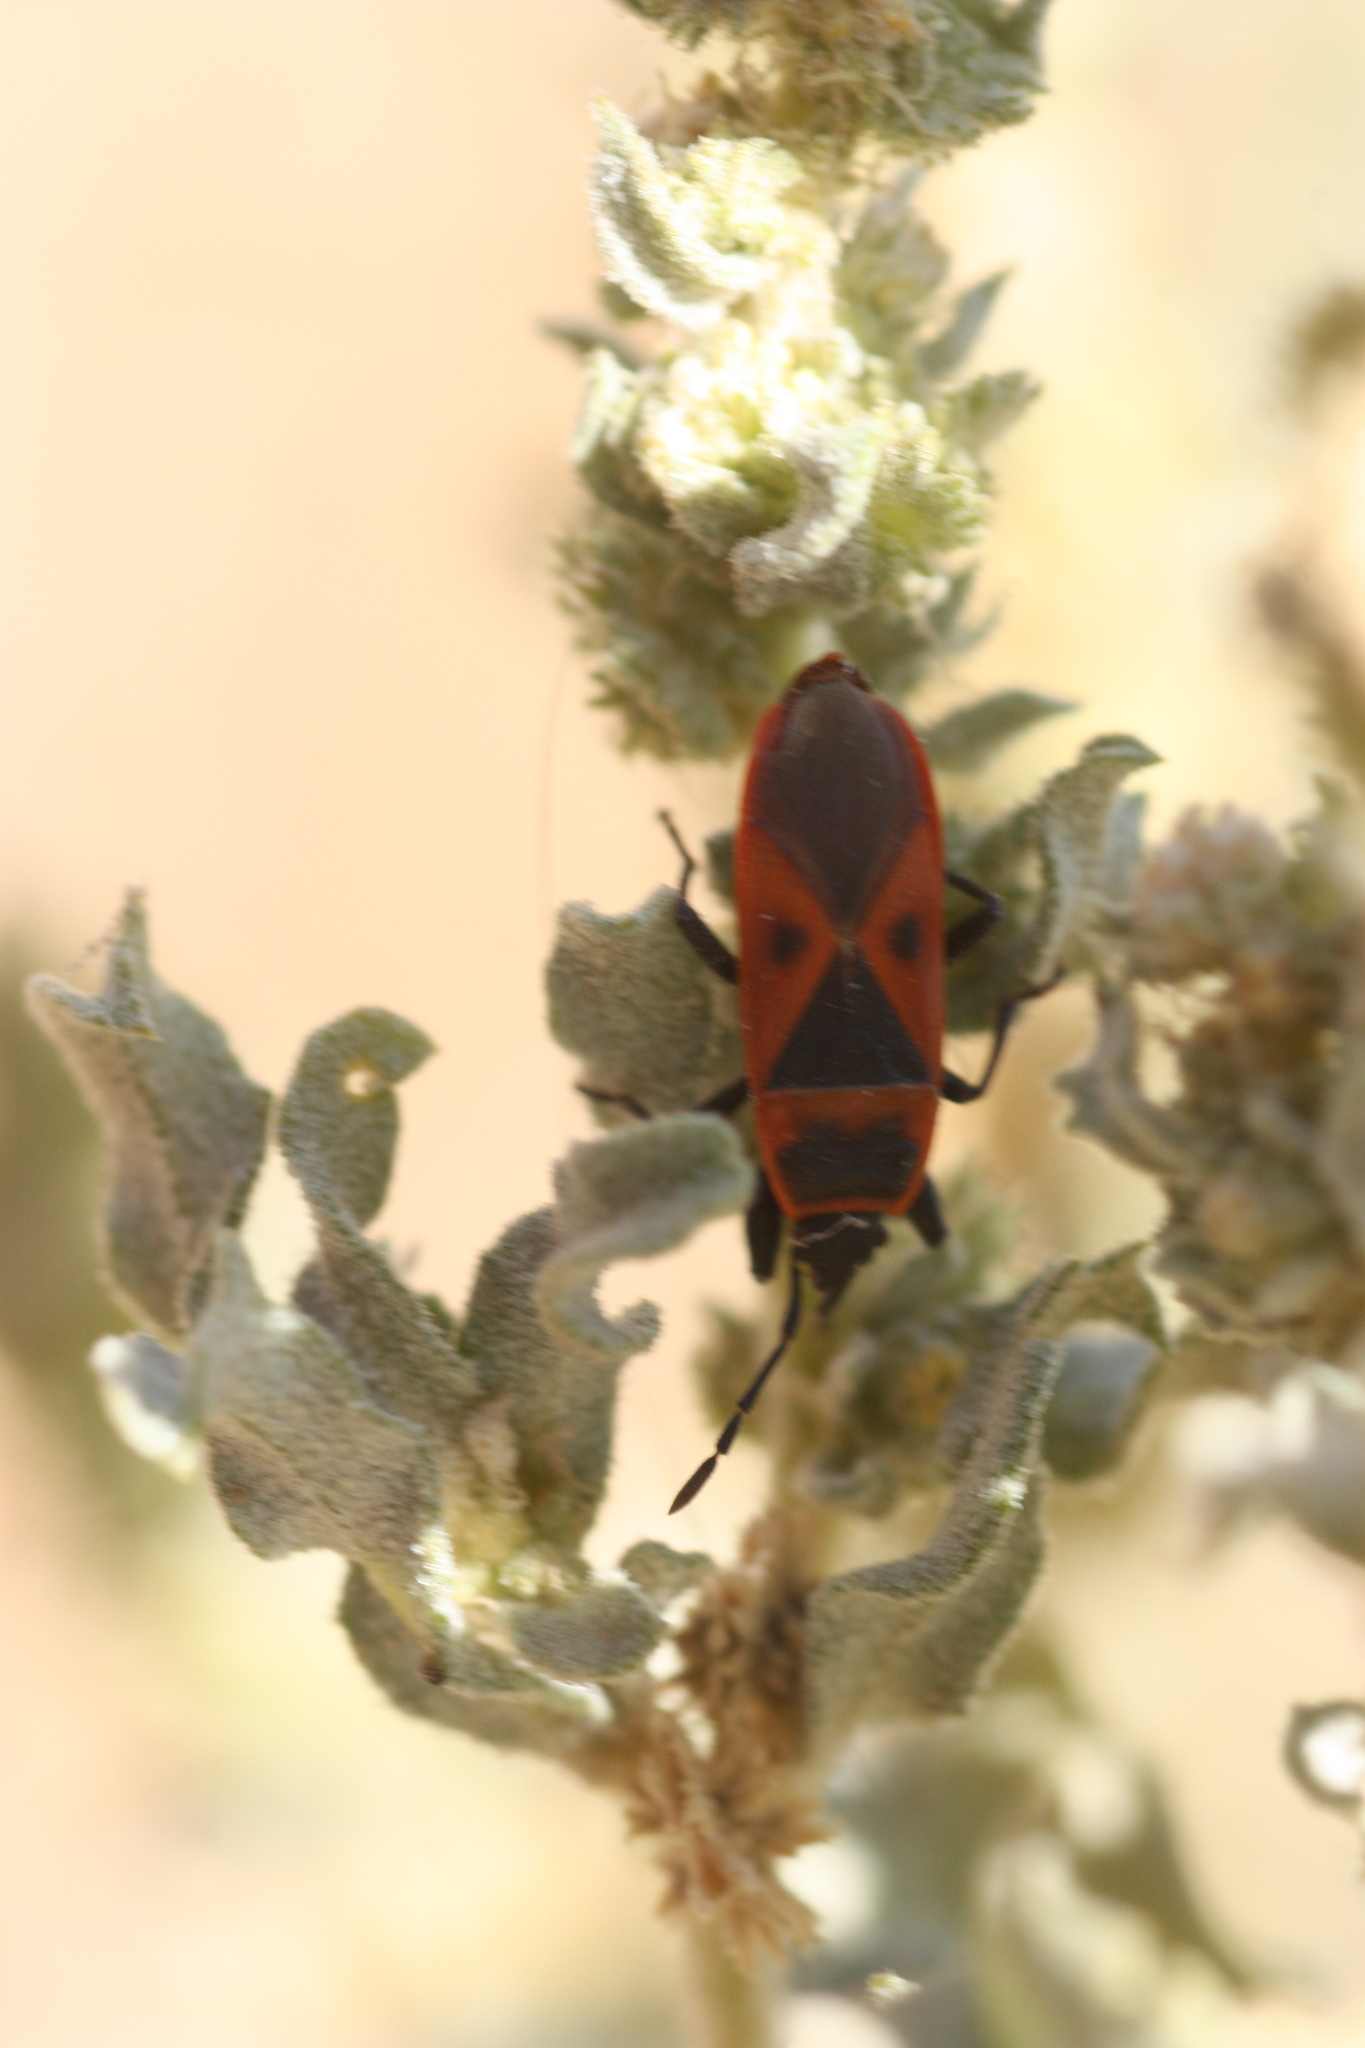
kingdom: Animalia
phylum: Arthropoda
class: Insecta
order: Hemiptera
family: Pyrrhocoridae
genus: Scantius
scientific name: Scantius aegyptius
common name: Red bug
